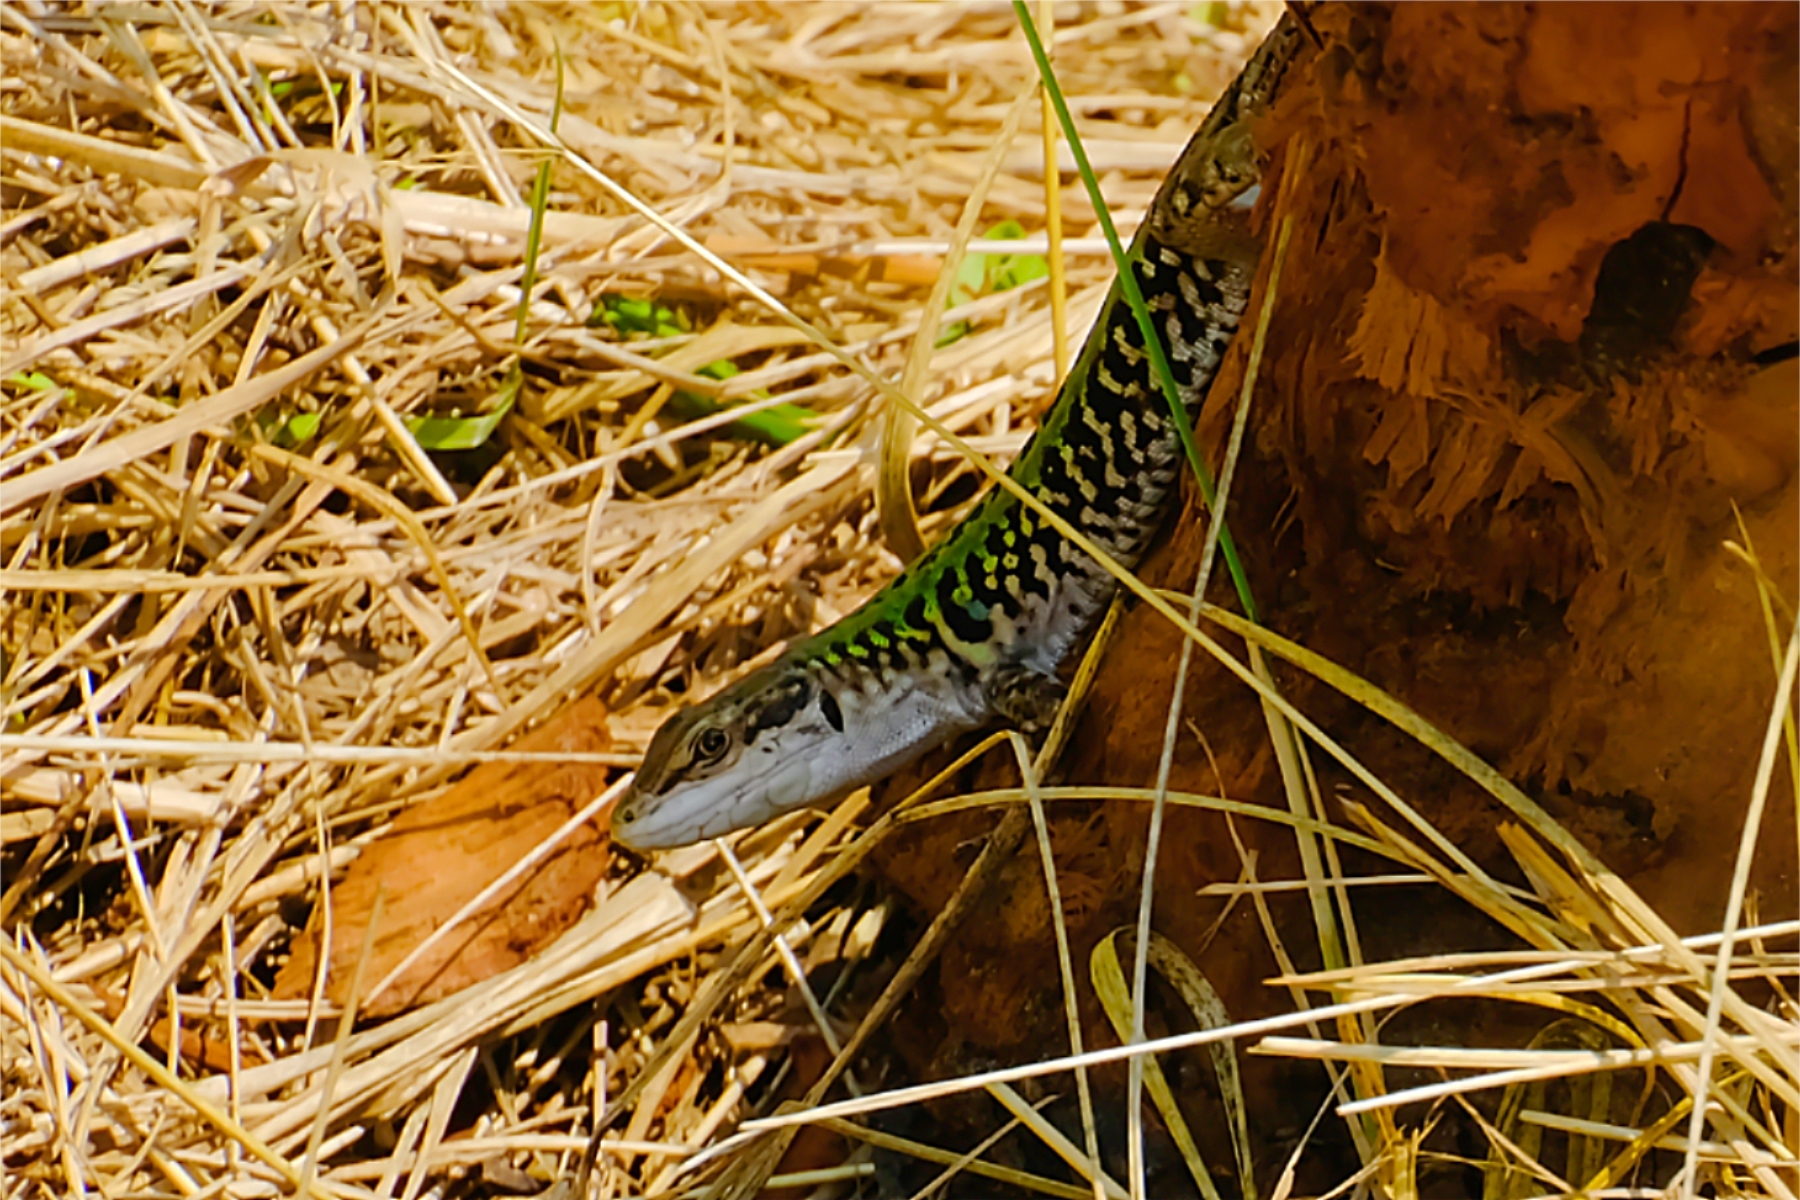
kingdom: Animalia
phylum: Chordata
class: Squamata
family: Lacertidae
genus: Podarcis
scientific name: Podarcis siculus
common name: Italian wall lizard
